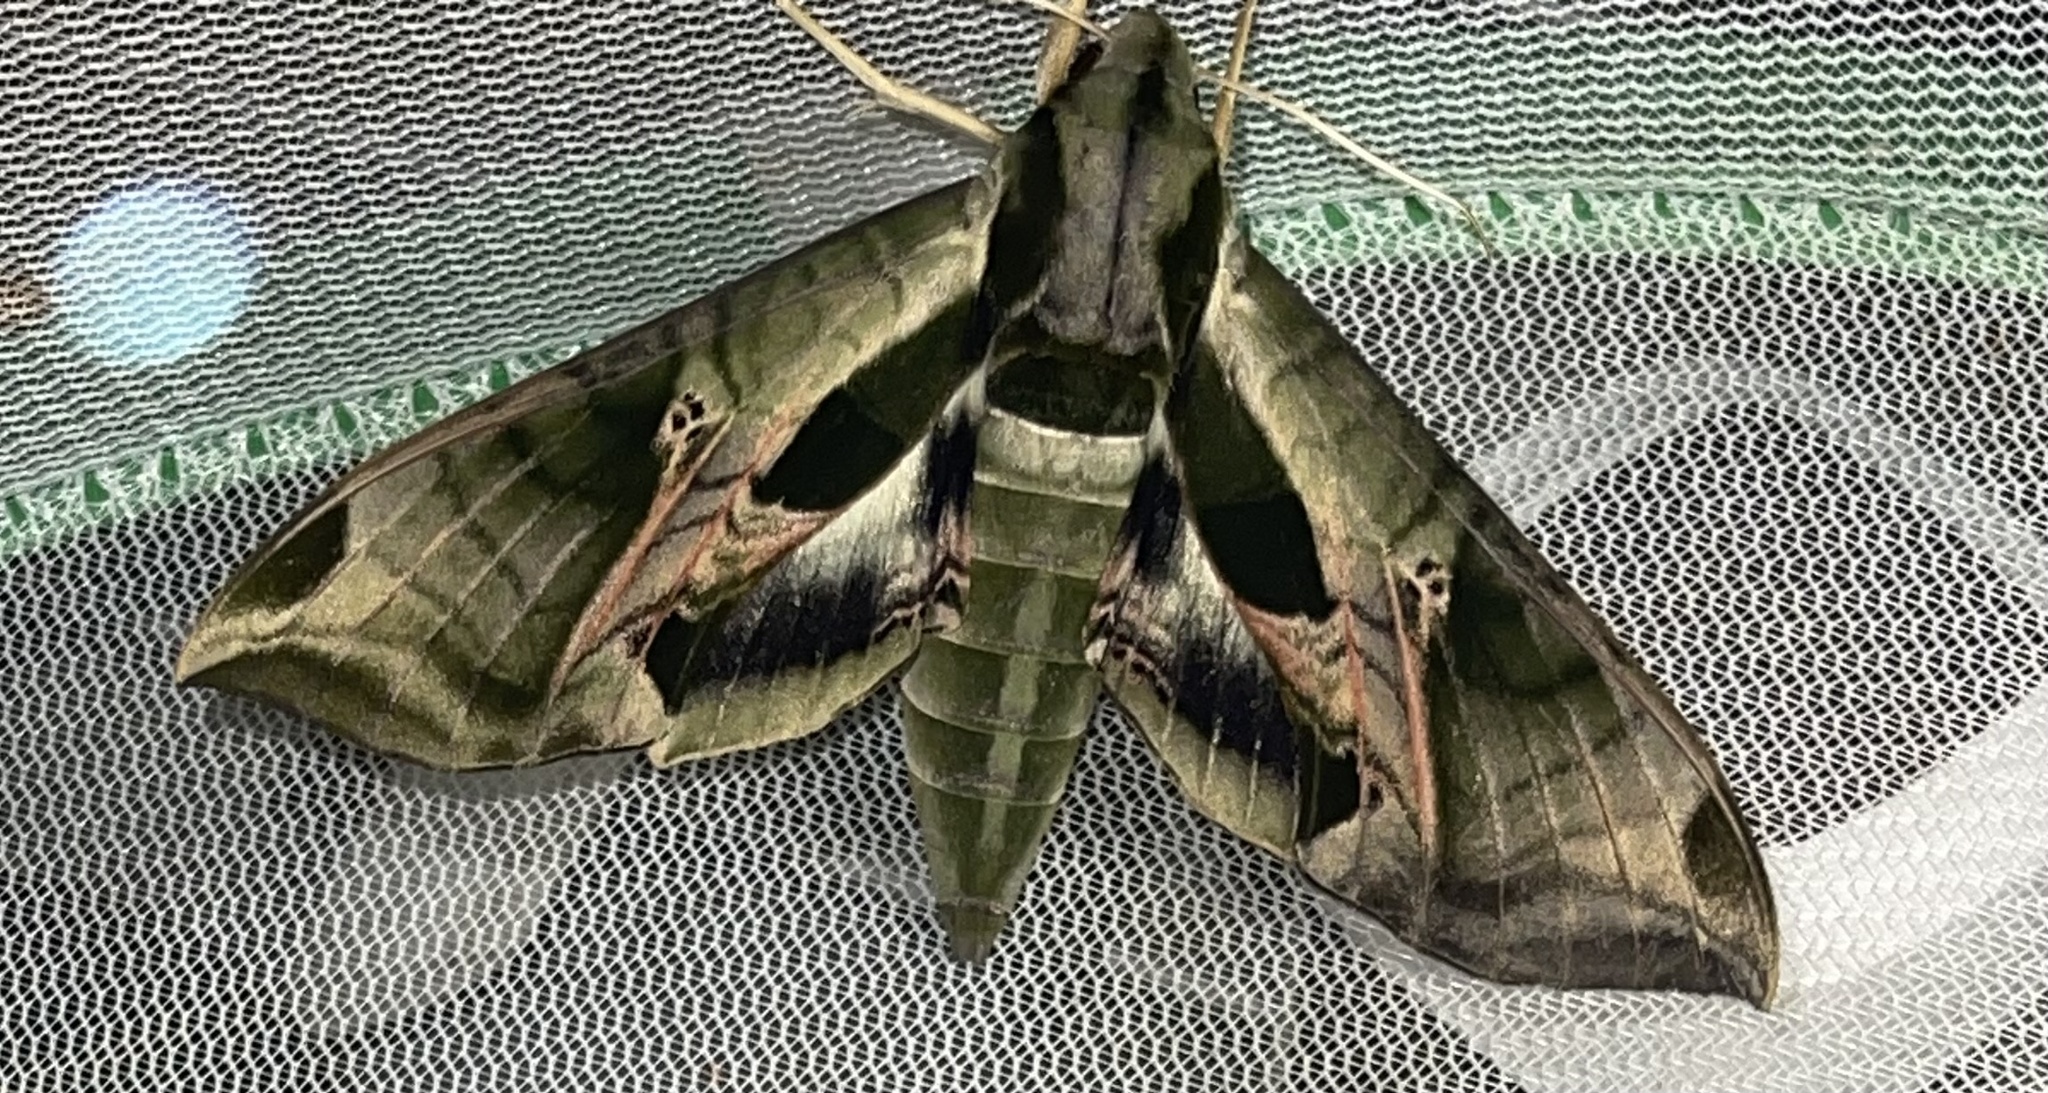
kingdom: Animalia
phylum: Arthropoda
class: Insecta
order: Lepidoptera
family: Sphingidae
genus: Eumorpha
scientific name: Eumorpha pandorus
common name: Pandora sphinx
